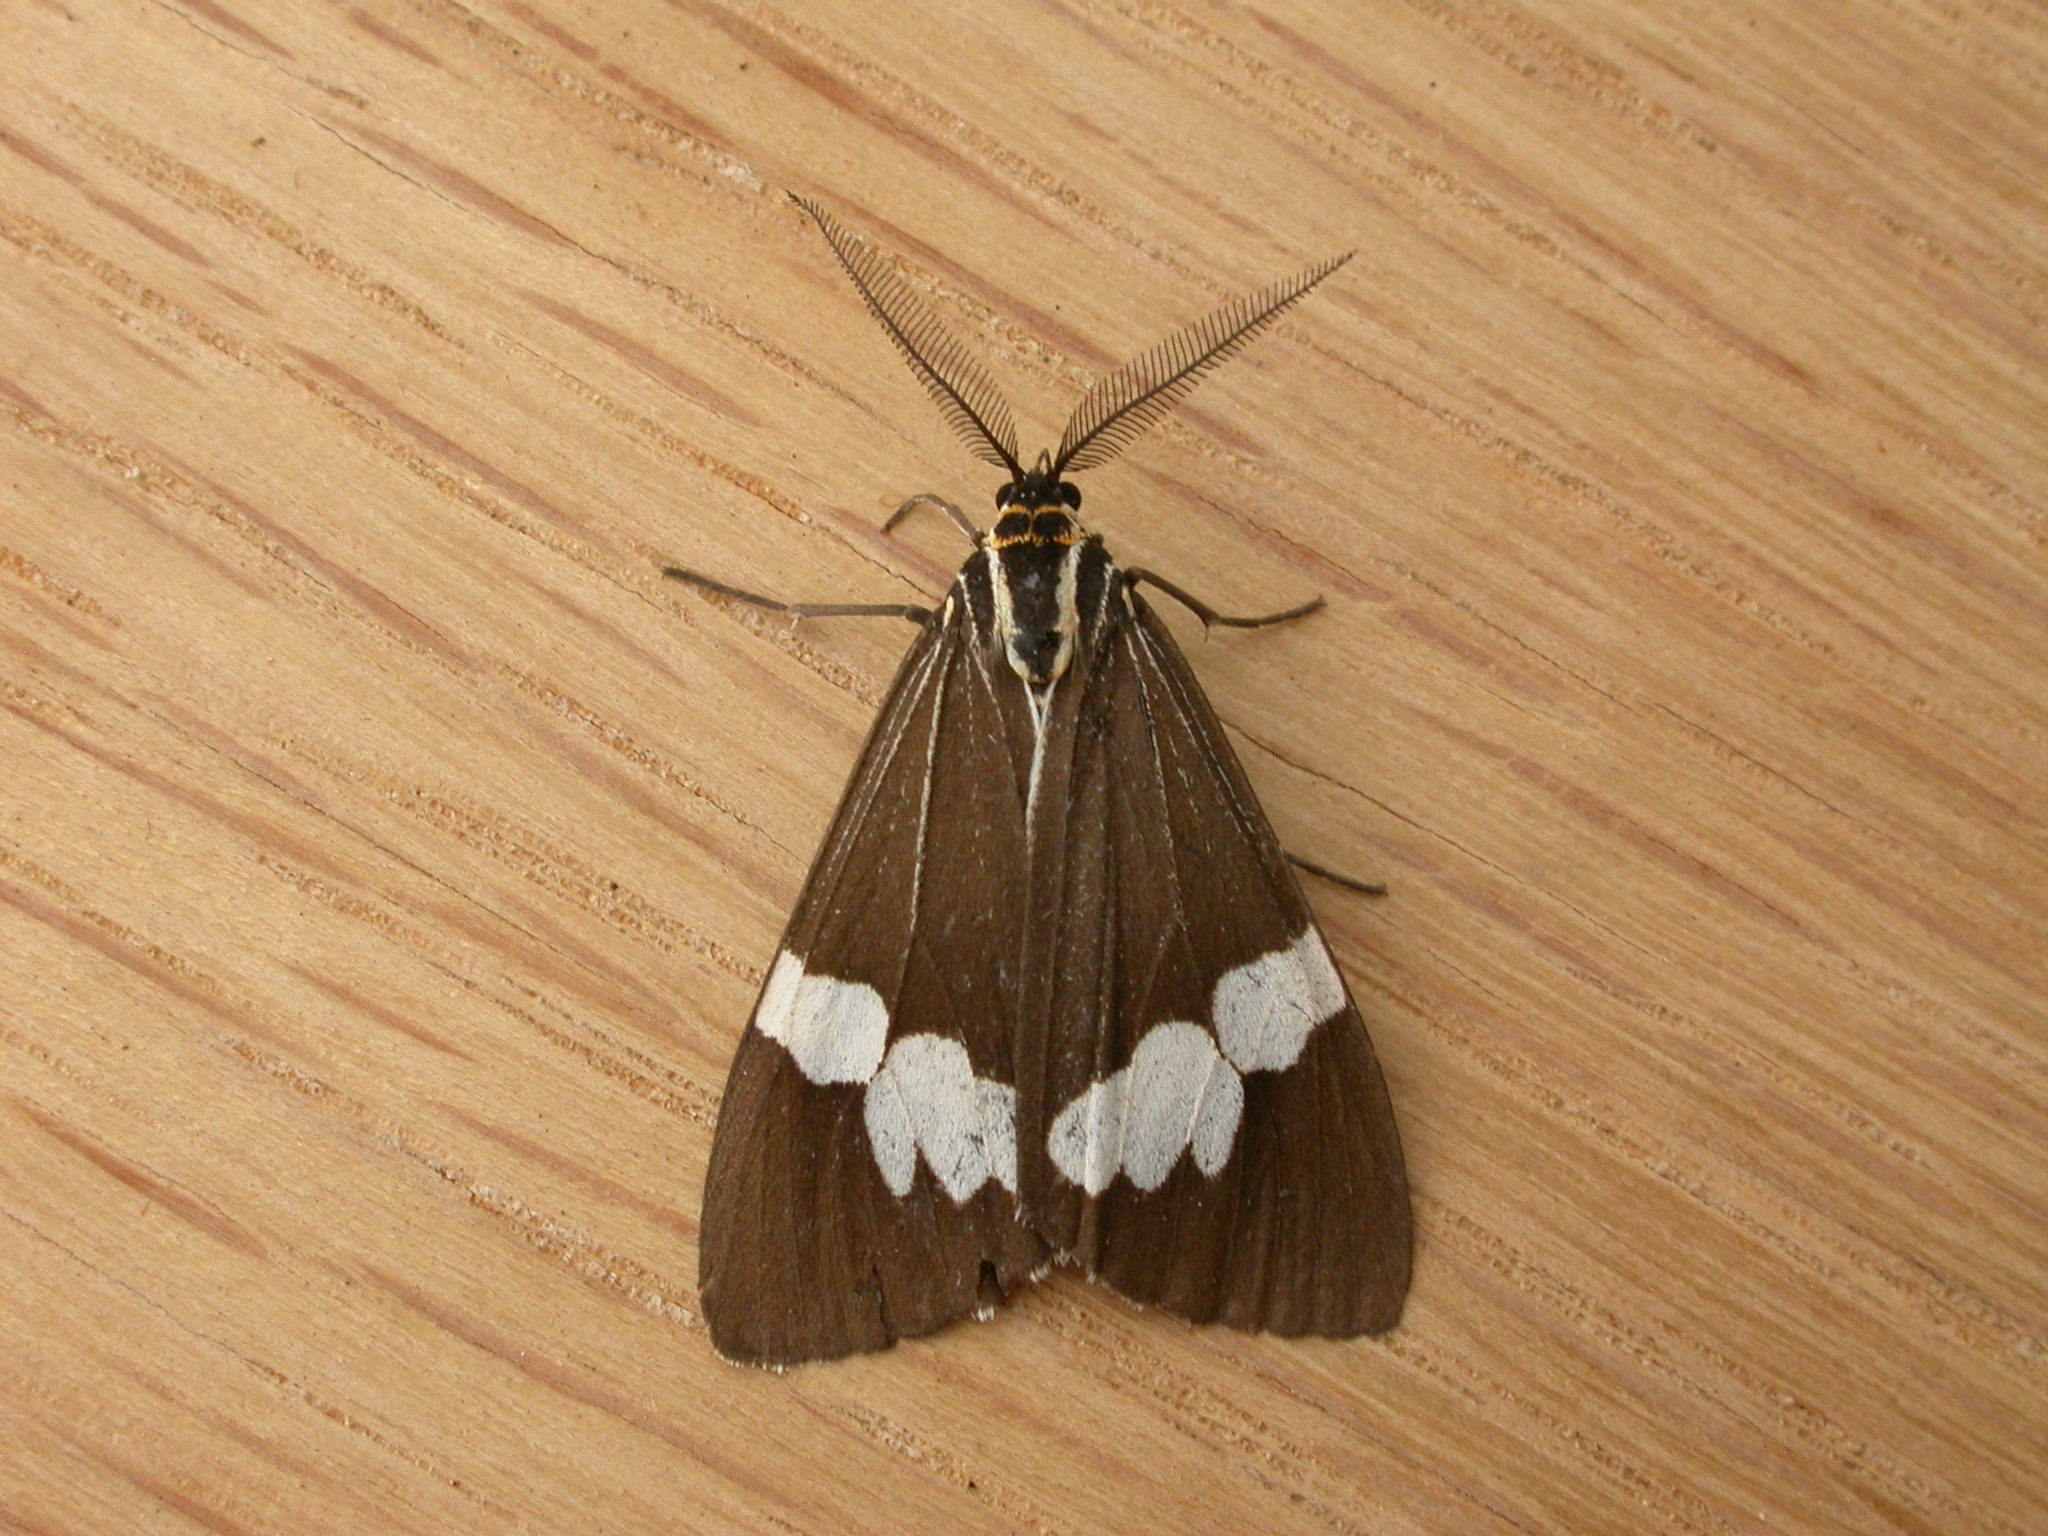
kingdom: Animalia
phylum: Arthropoda
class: Insecta
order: Lepidoptera
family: Erebidae
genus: Nyctemera
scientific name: Nyctemera amicus
